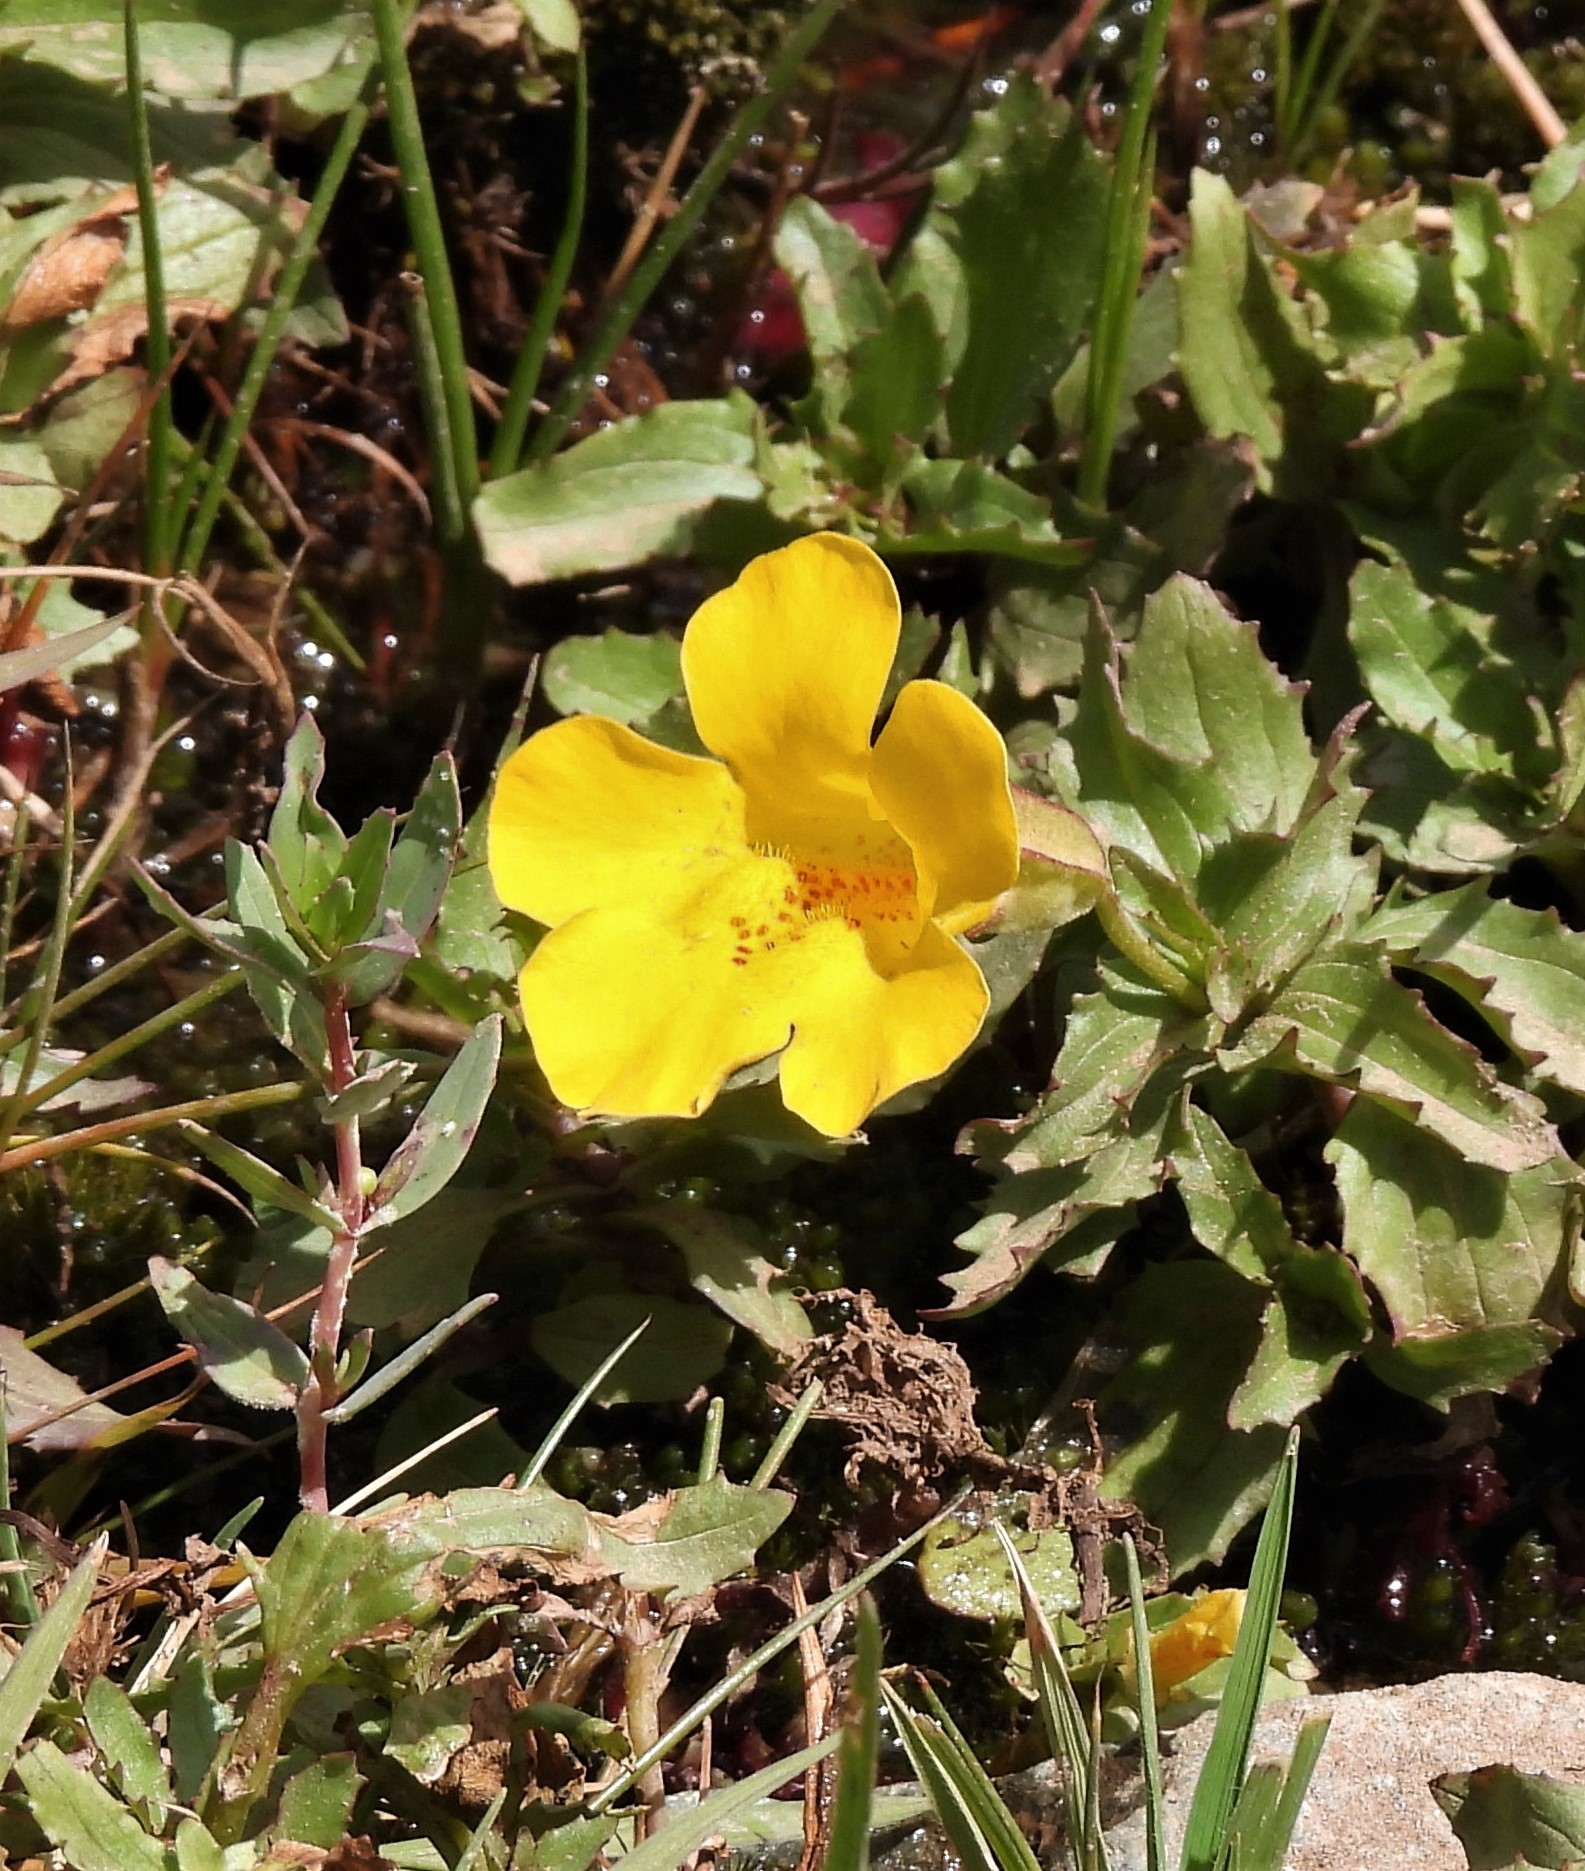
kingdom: Plantae
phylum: Tracheophyta
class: Magnoliopsida
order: Lamiales
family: Phrymaceae
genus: Erythranthe
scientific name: Erythranthe lutea
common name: Yellow monkey-flower
